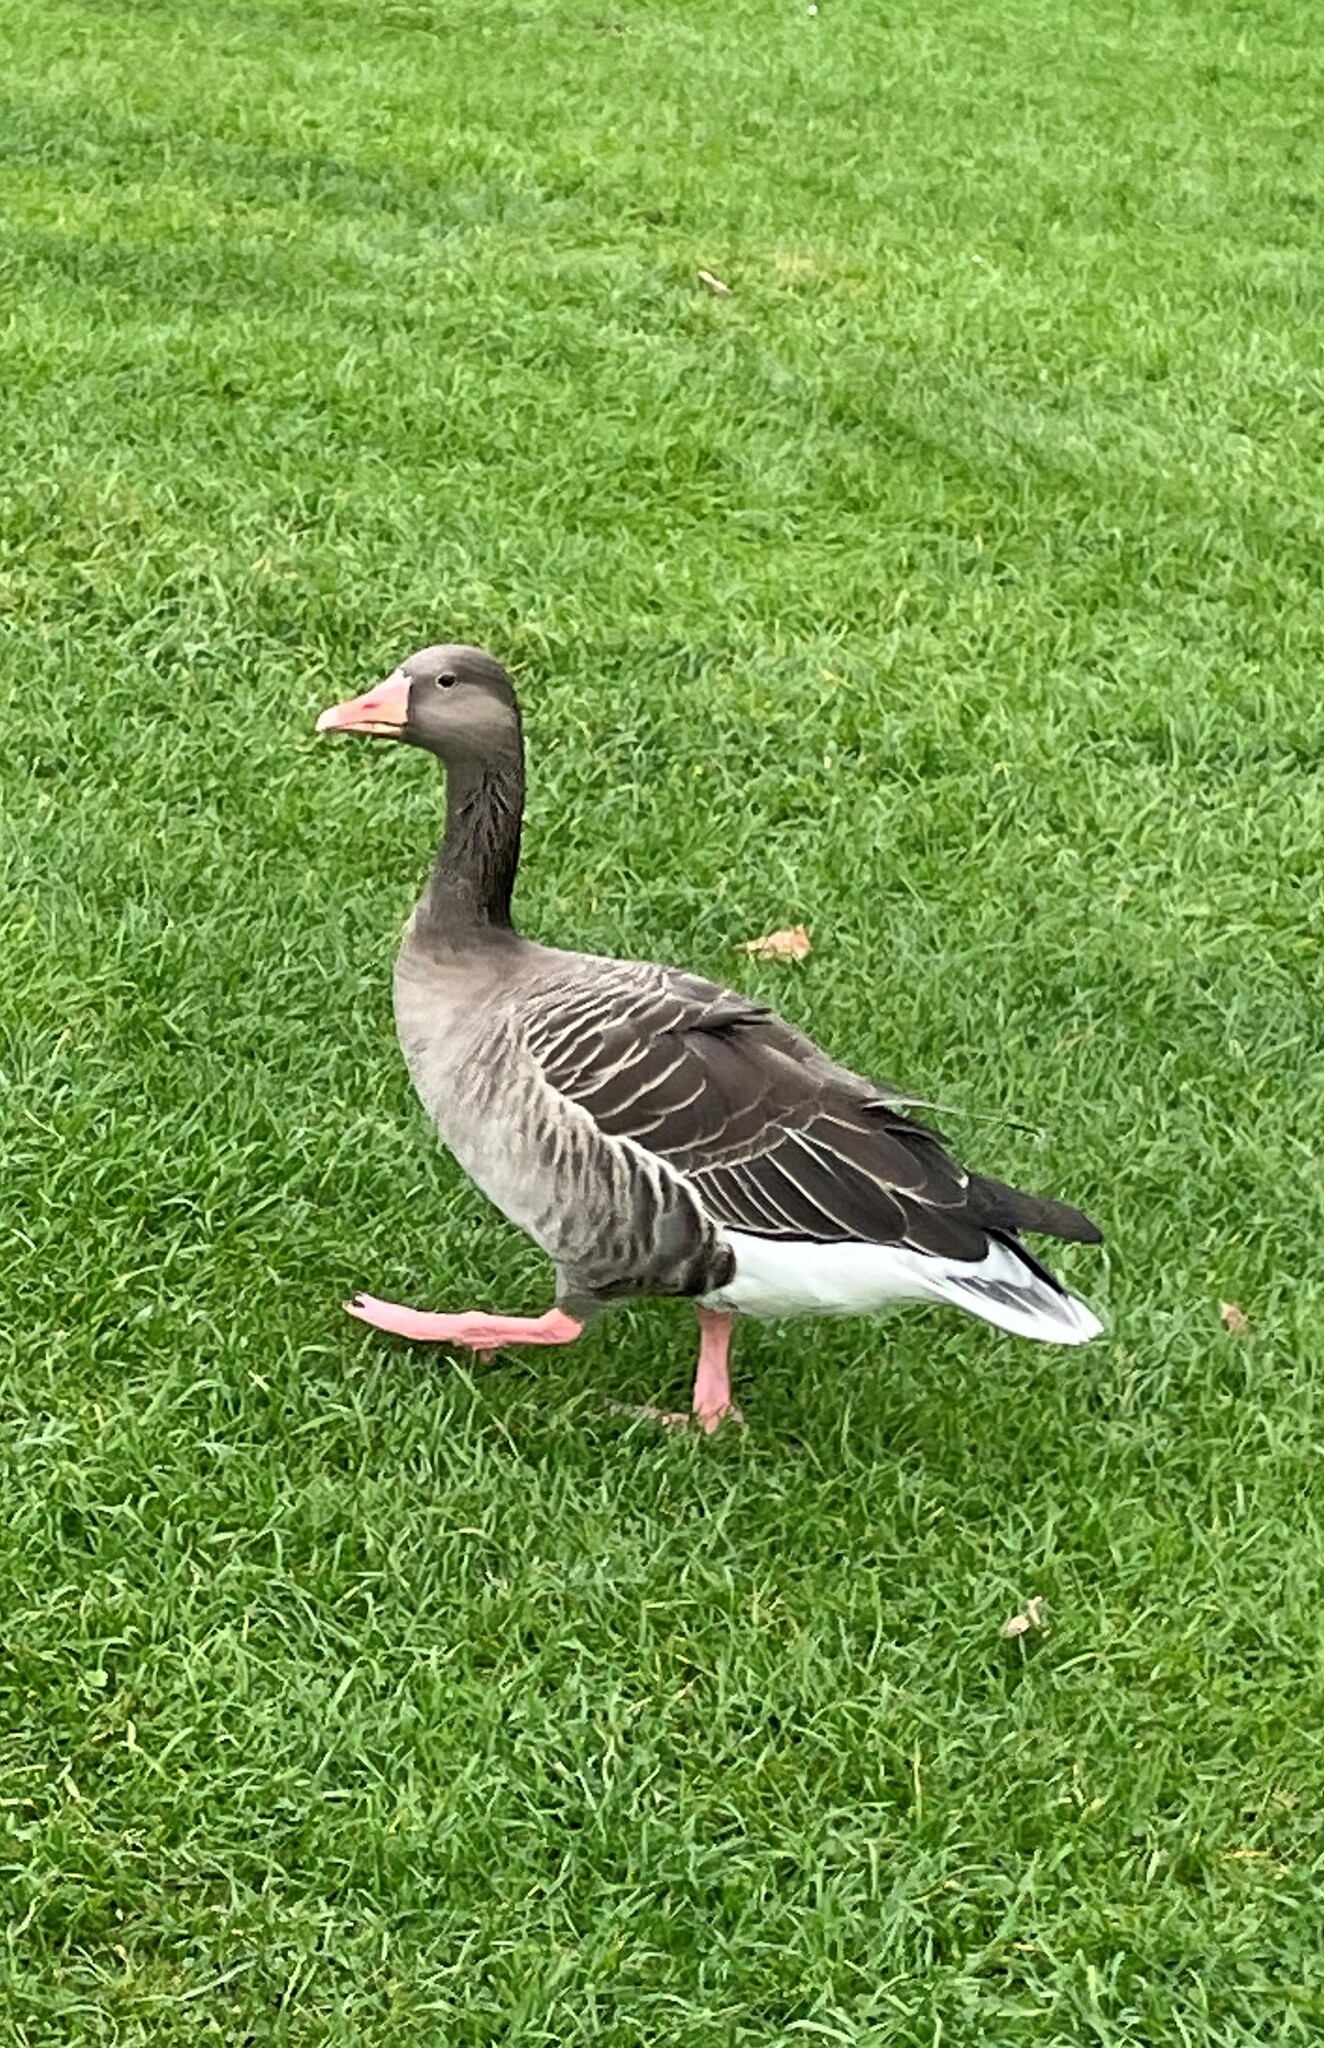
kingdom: Animalia
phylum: Chordata
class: Aves
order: Anseriformes
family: Anatidae
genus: Anser
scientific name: Anser anser
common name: Greylag goose
